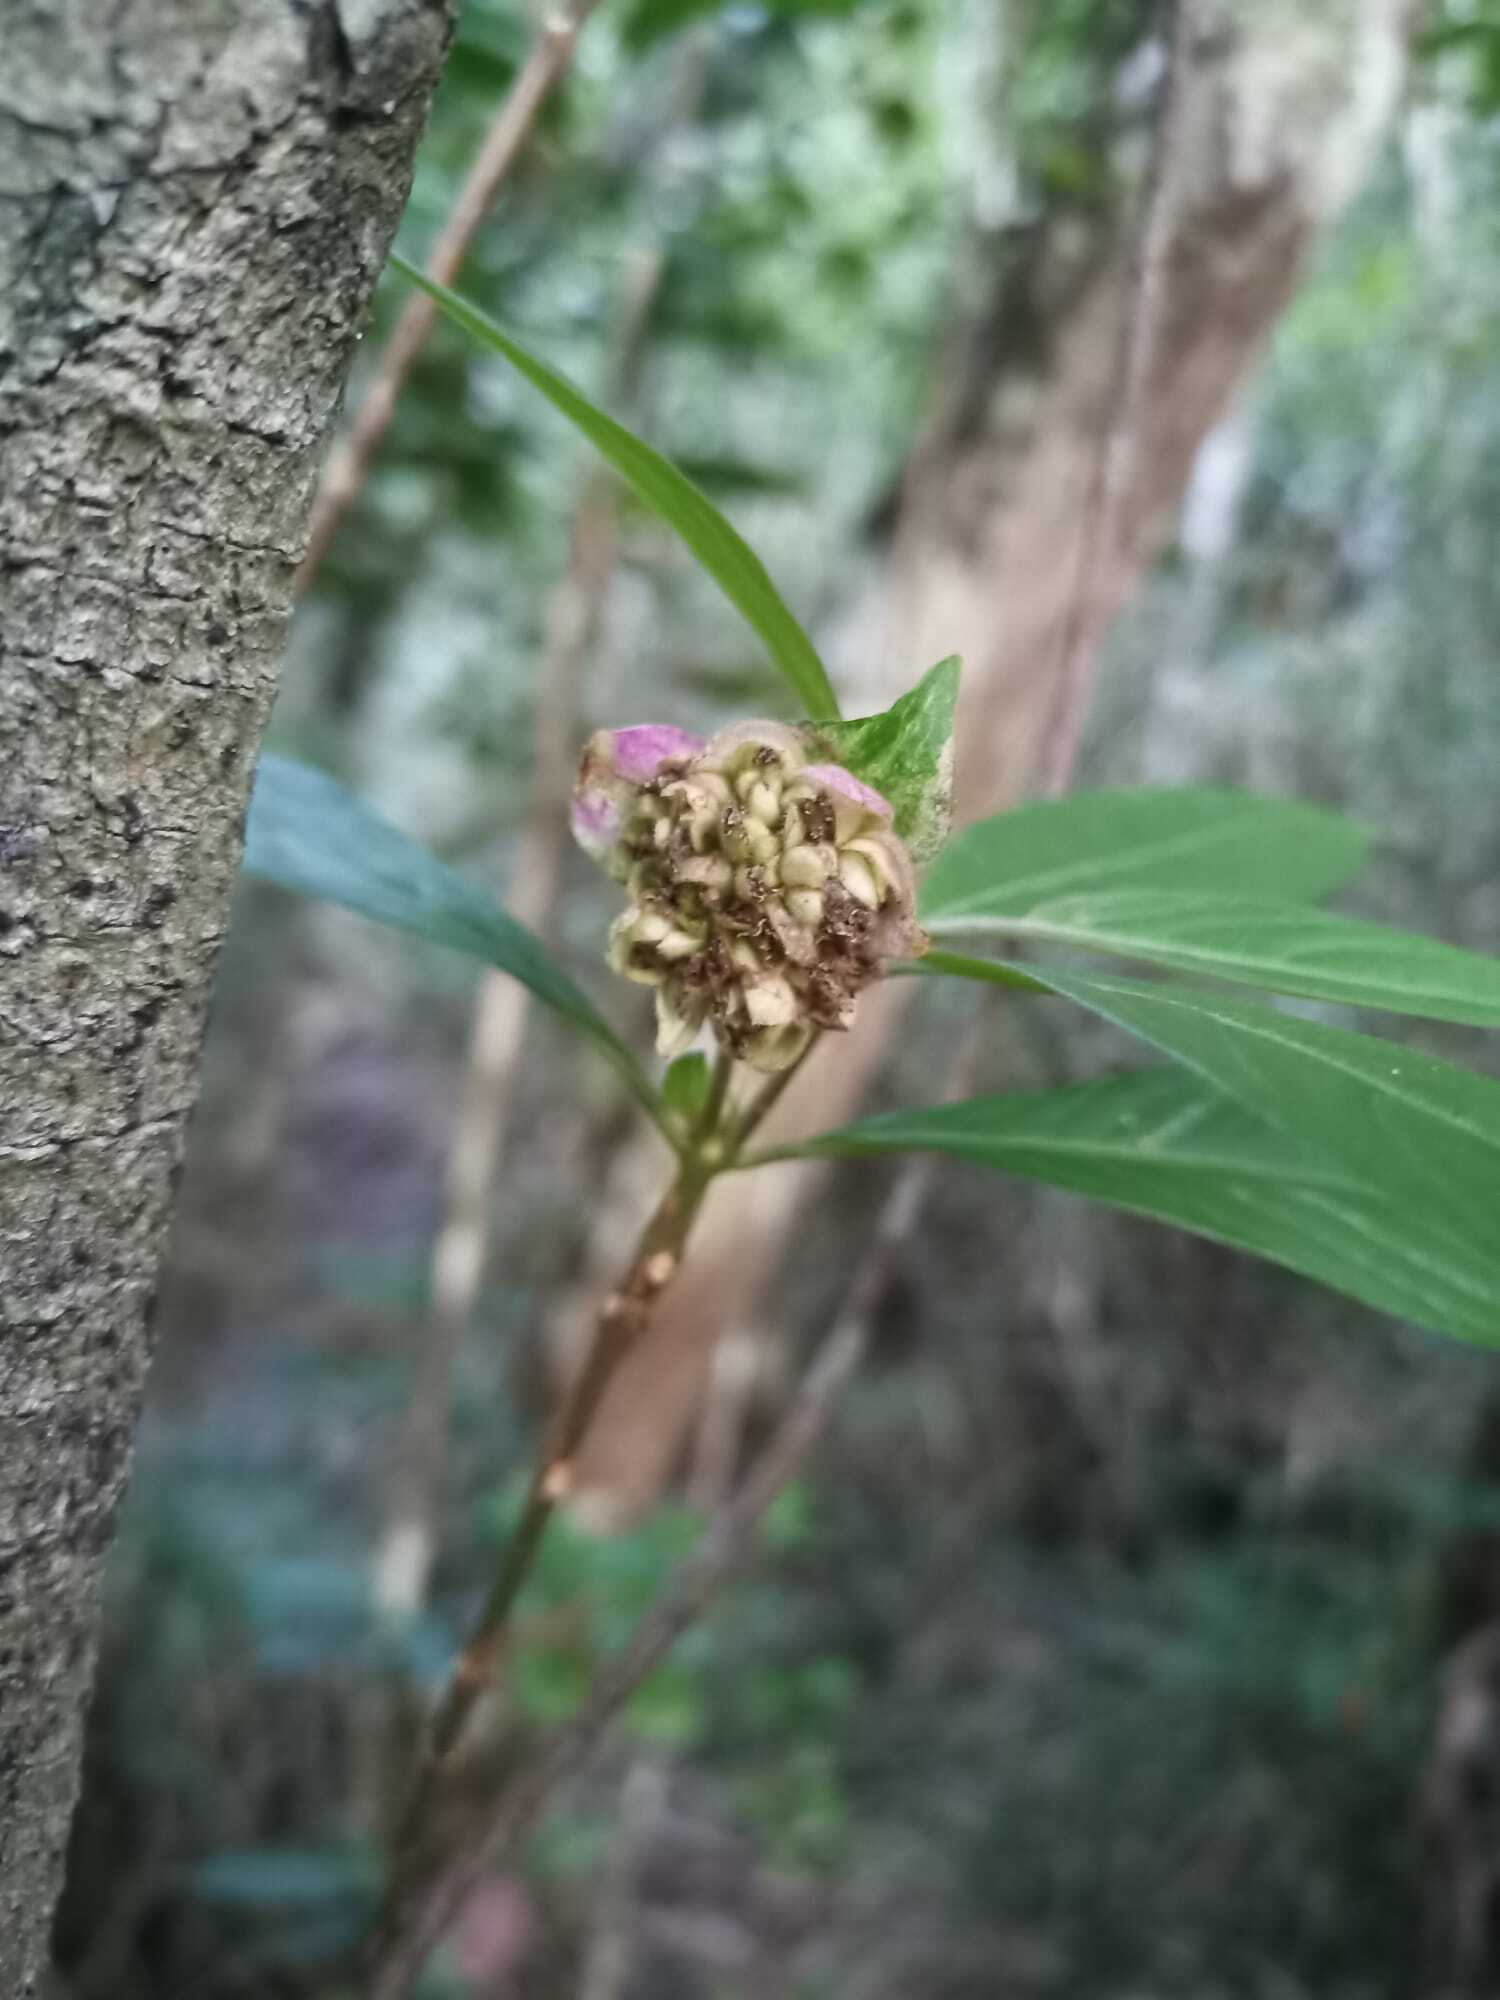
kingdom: Plantae
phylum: Tracheophyta
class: Magnoliopsida
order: Gentianales
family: Rubiaceae
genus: Palicourea
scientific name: Palicourea bracteocardia
